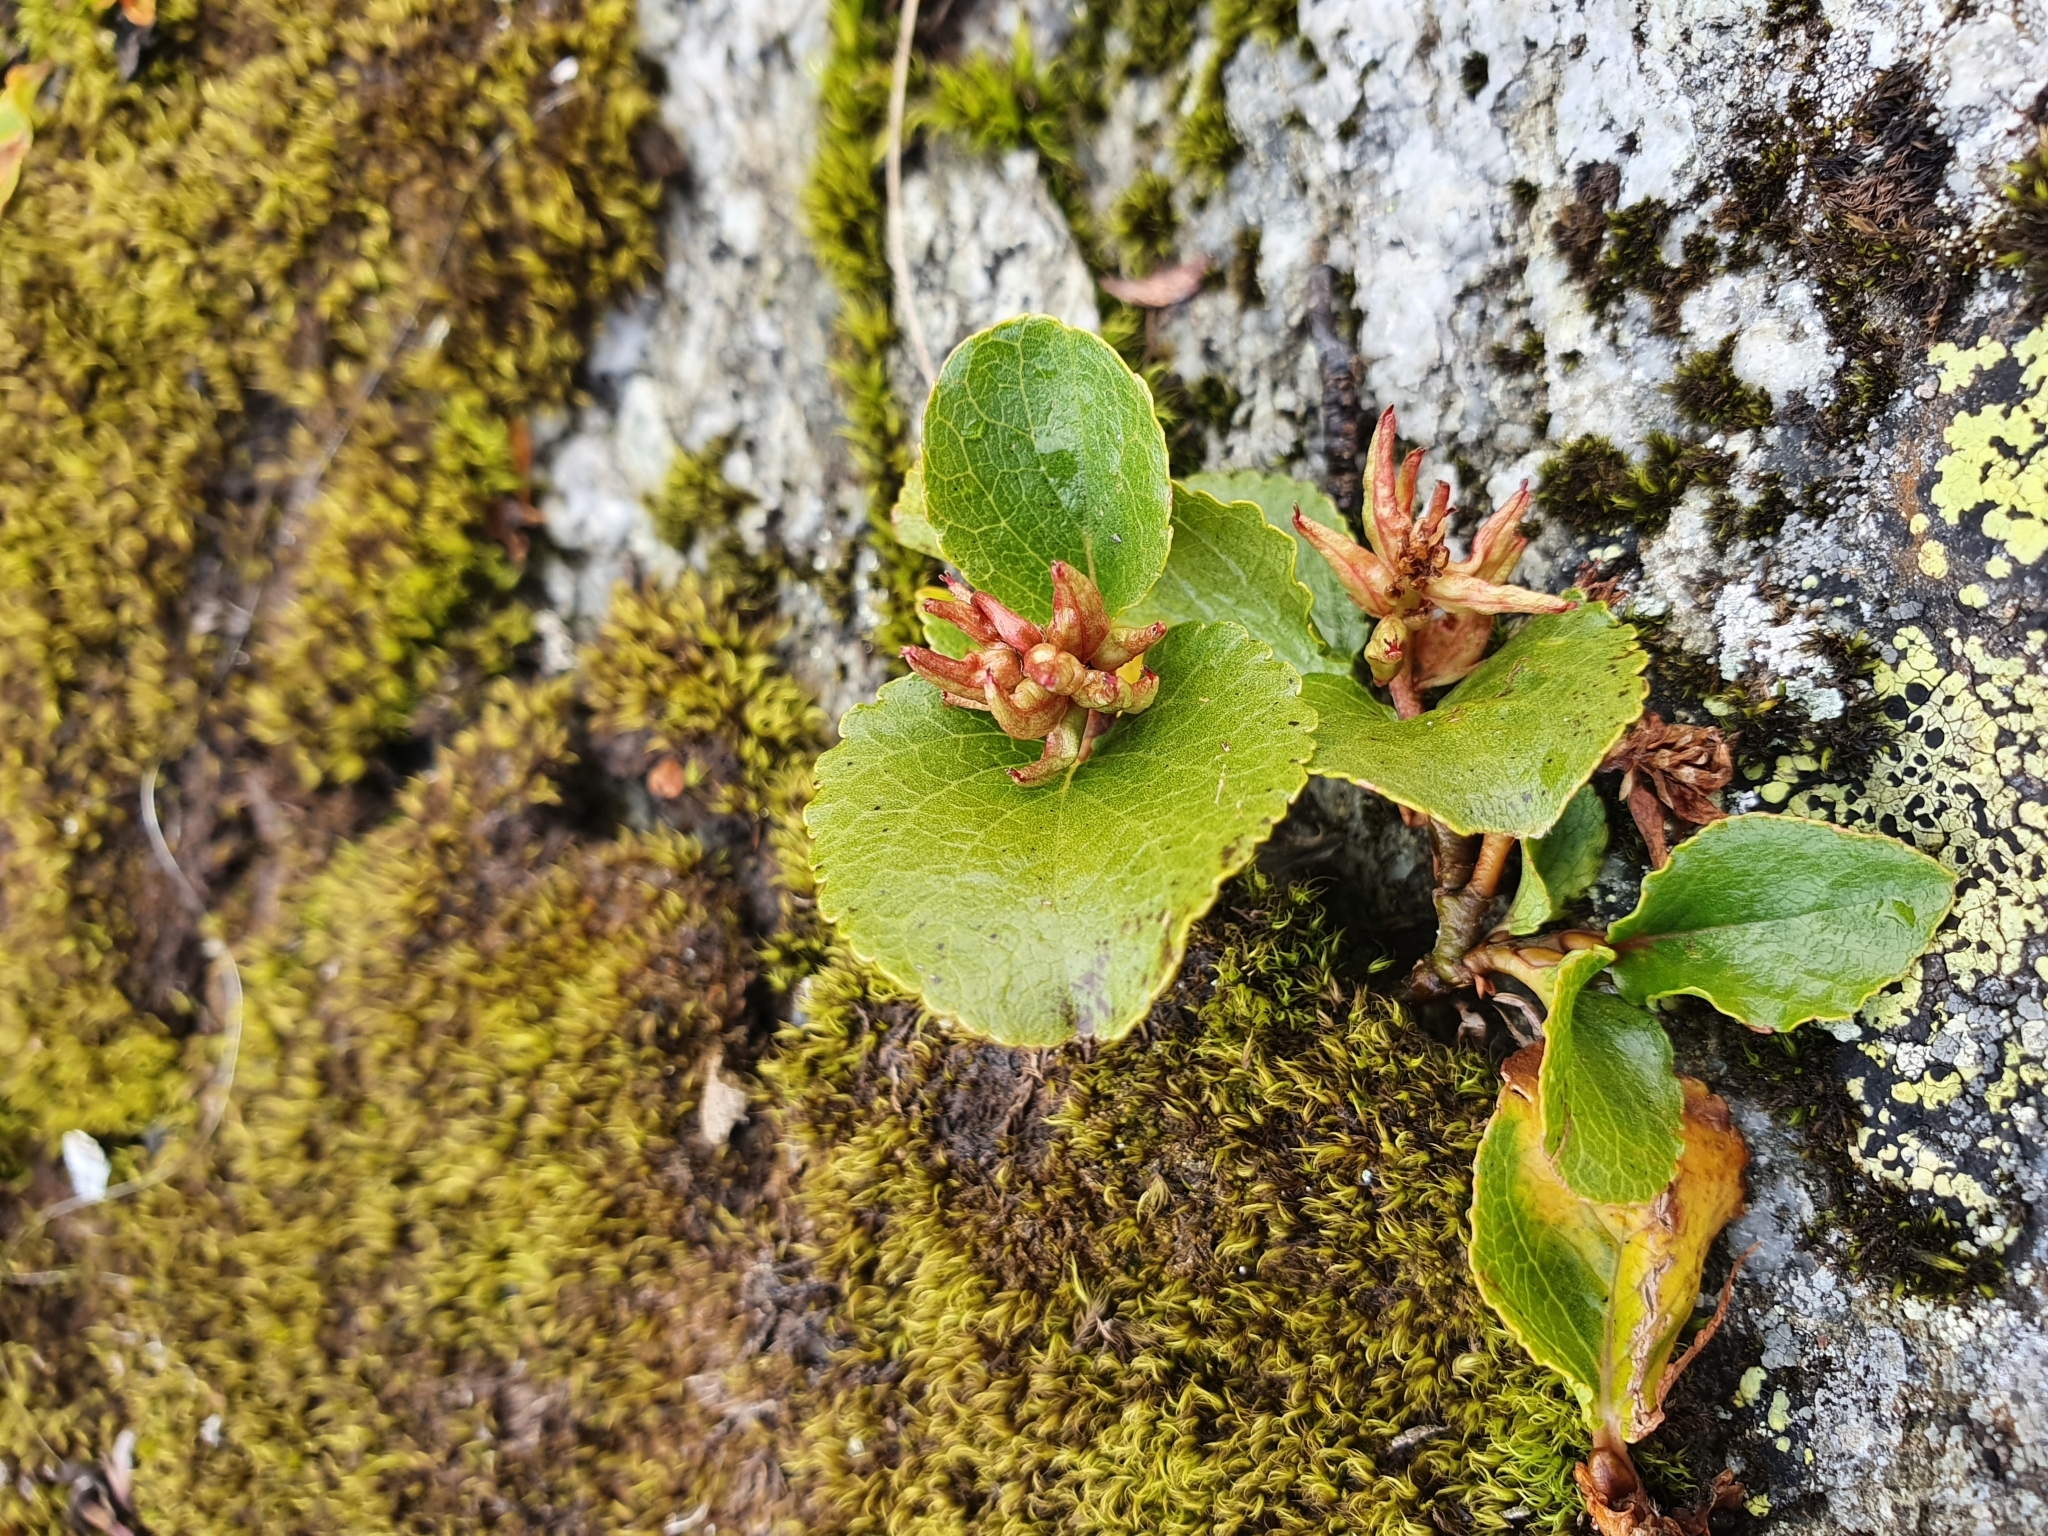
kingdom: Plantae
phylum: Tracheophyta
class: Magnoliopsida
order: Malpighiales
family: Salicaceae
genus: Salix
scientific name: Salix herbacea
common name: Dwarf willow
